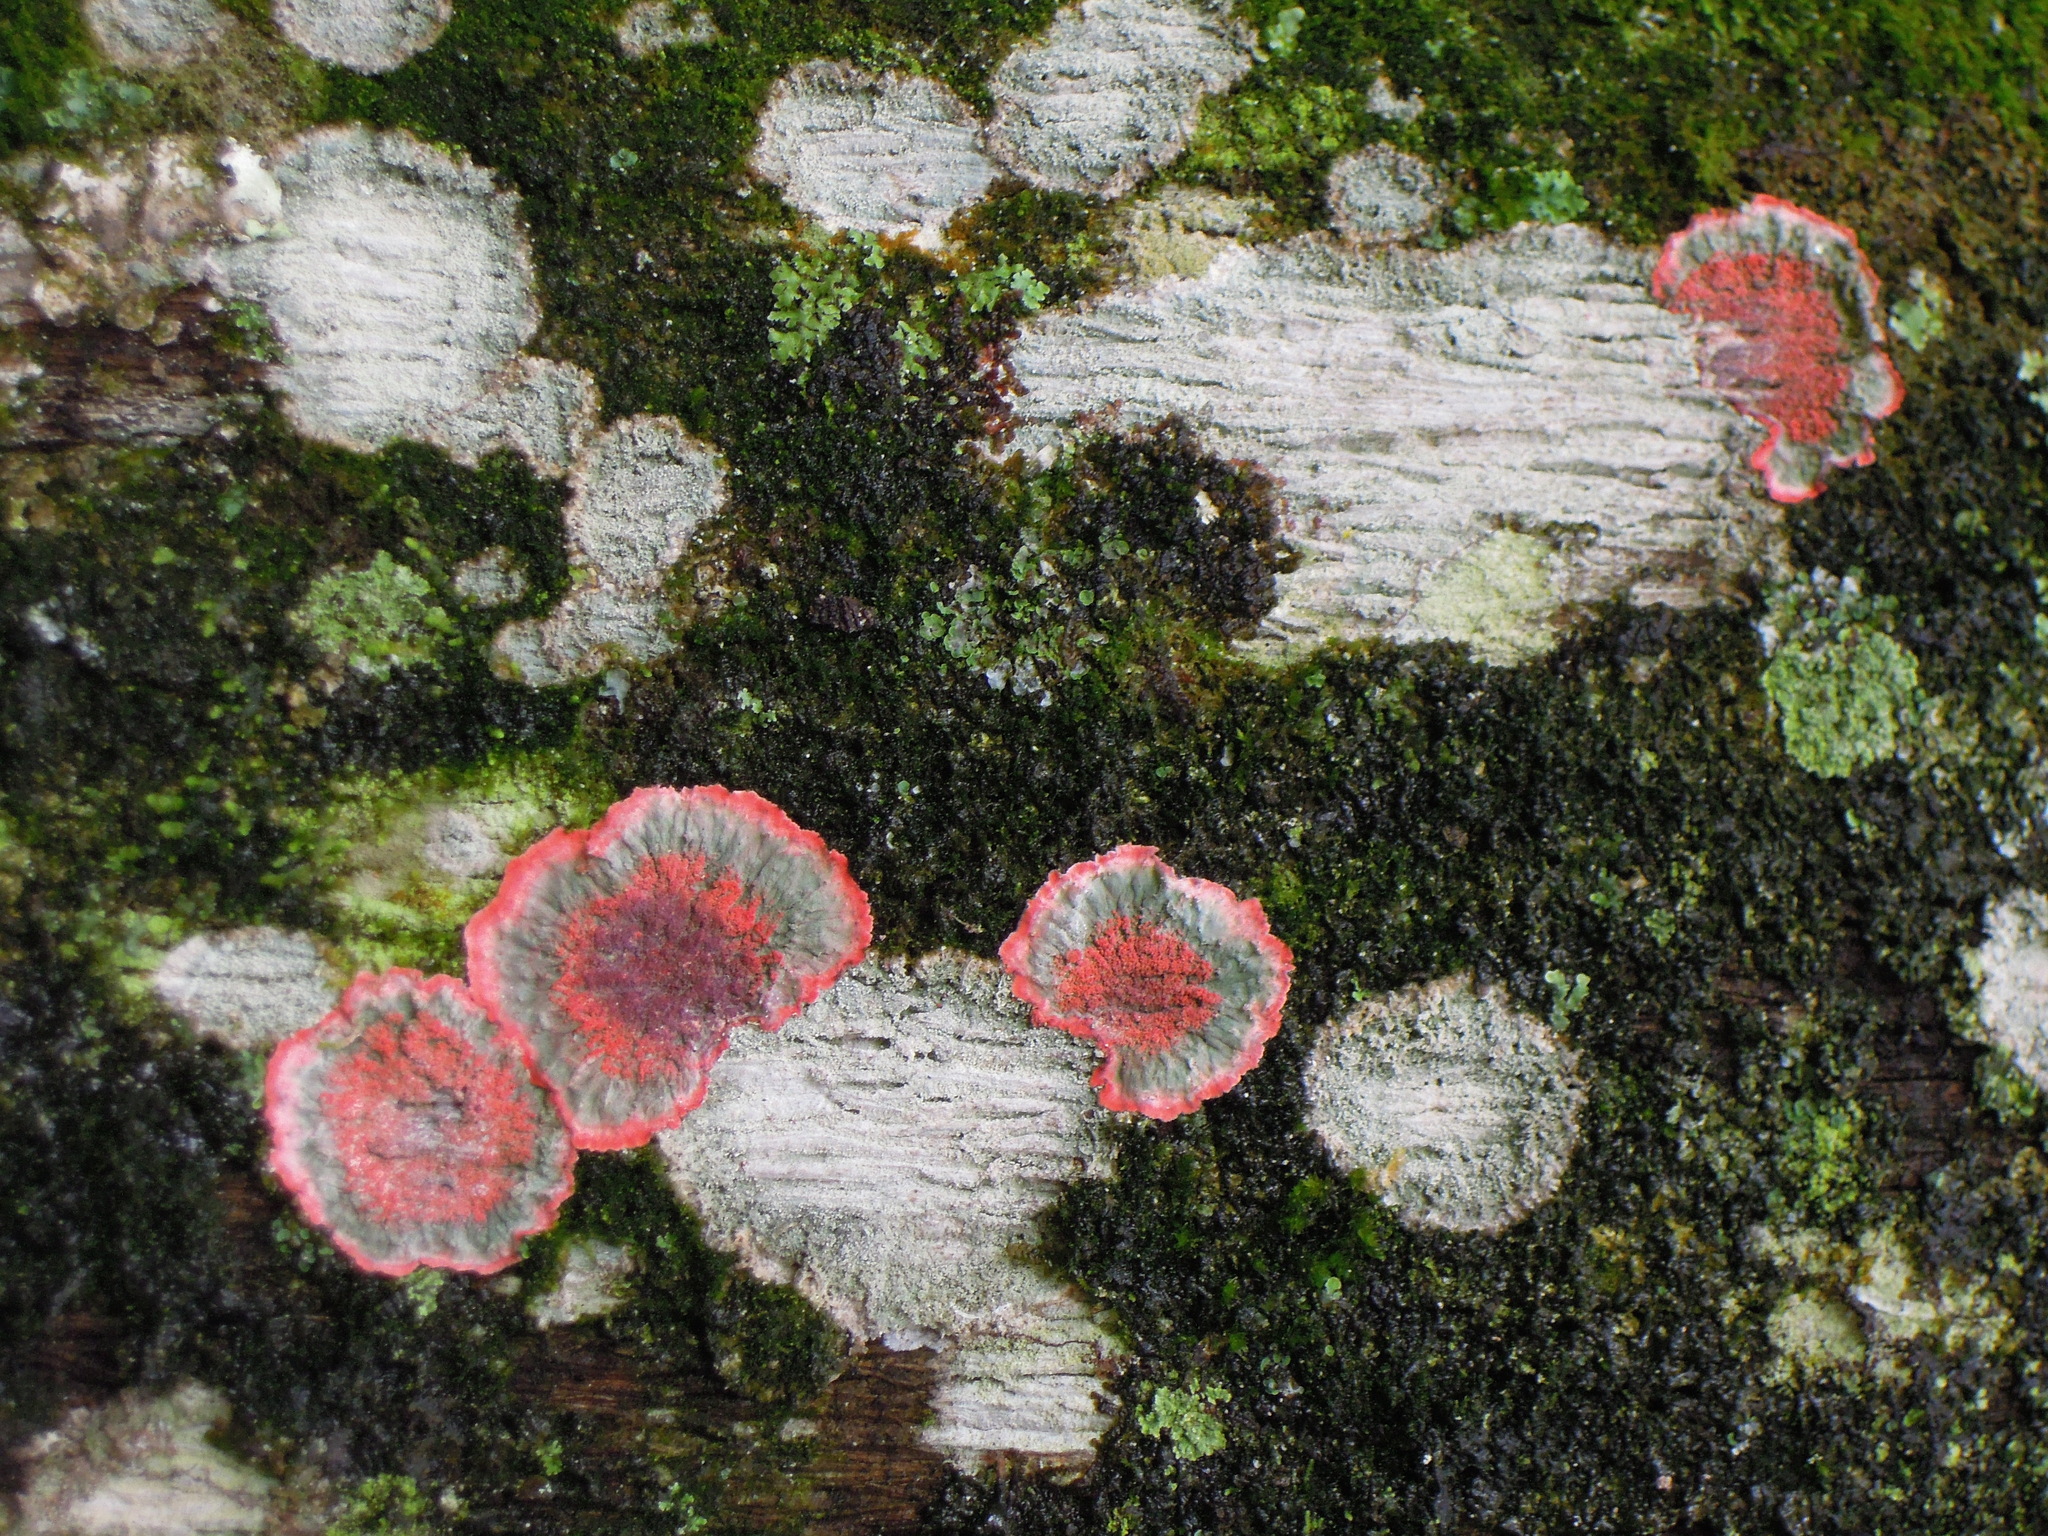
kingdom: Fungi
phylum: Ascomycota
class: Arthoniomycetes
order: Arthoniales
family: Arthoniaceae
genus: Herpothallon
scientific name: Herpothallon rubrocinctum
